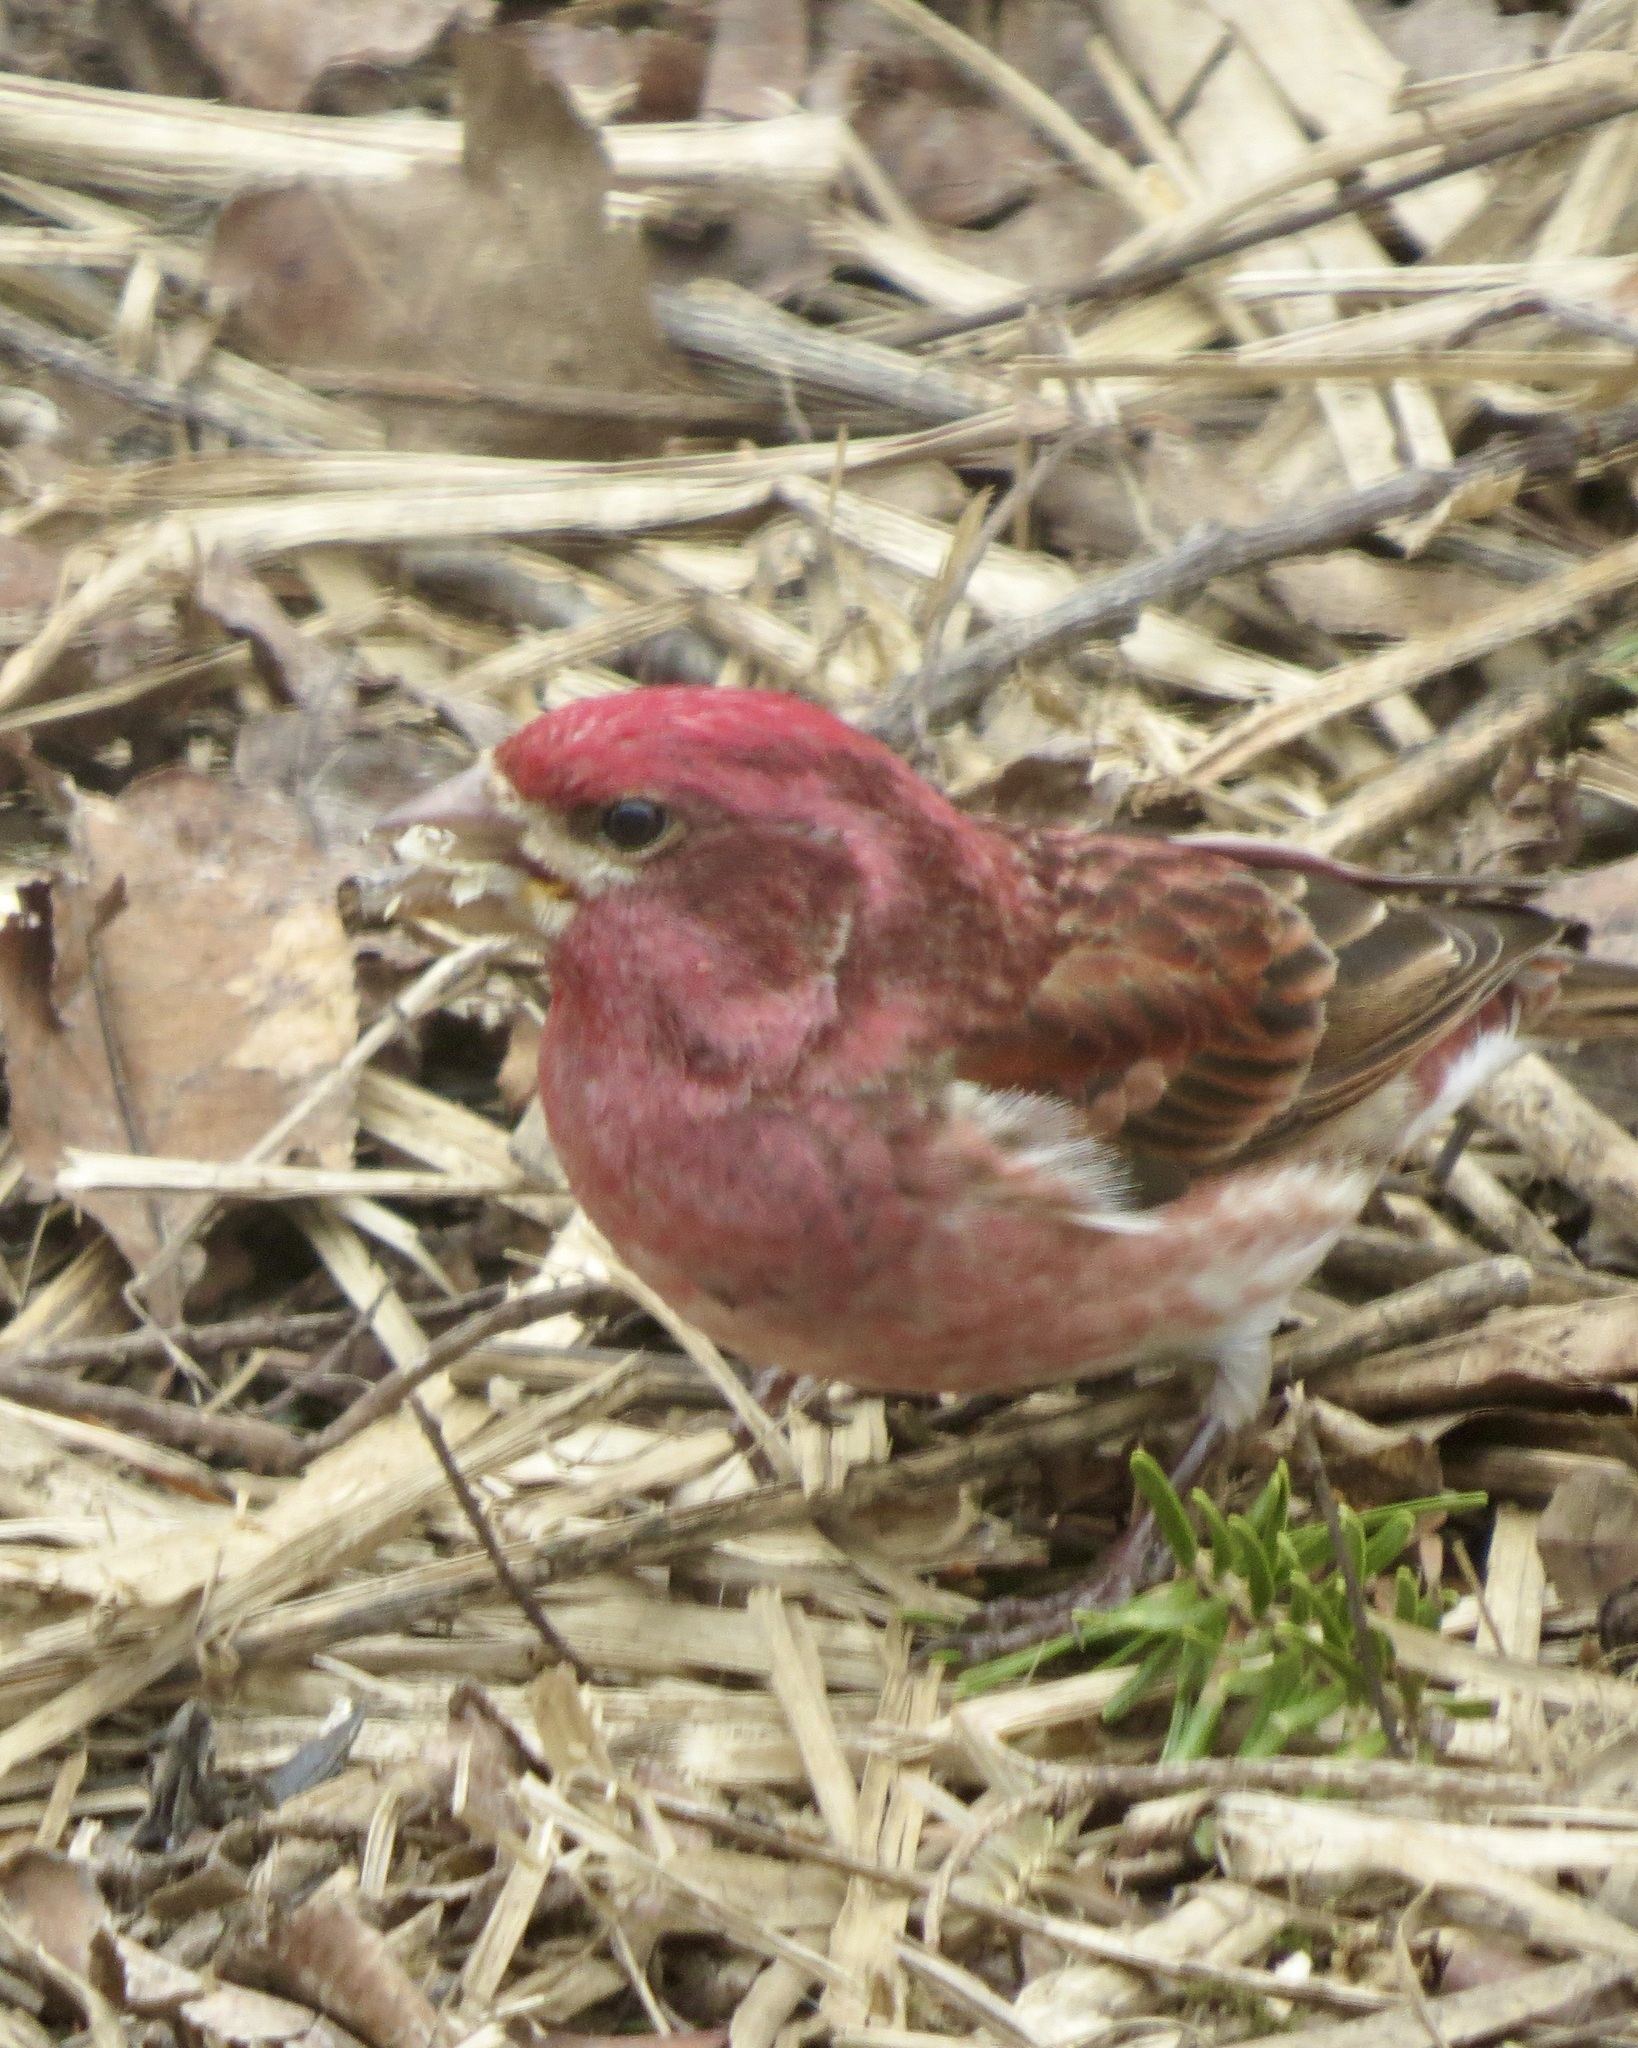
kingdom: Animalia
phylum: Chordata
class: Aves
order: Passeriformes
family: Fringillidae
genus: Haemorhous
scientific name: Haemorhous purpureus
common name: Purple finch
